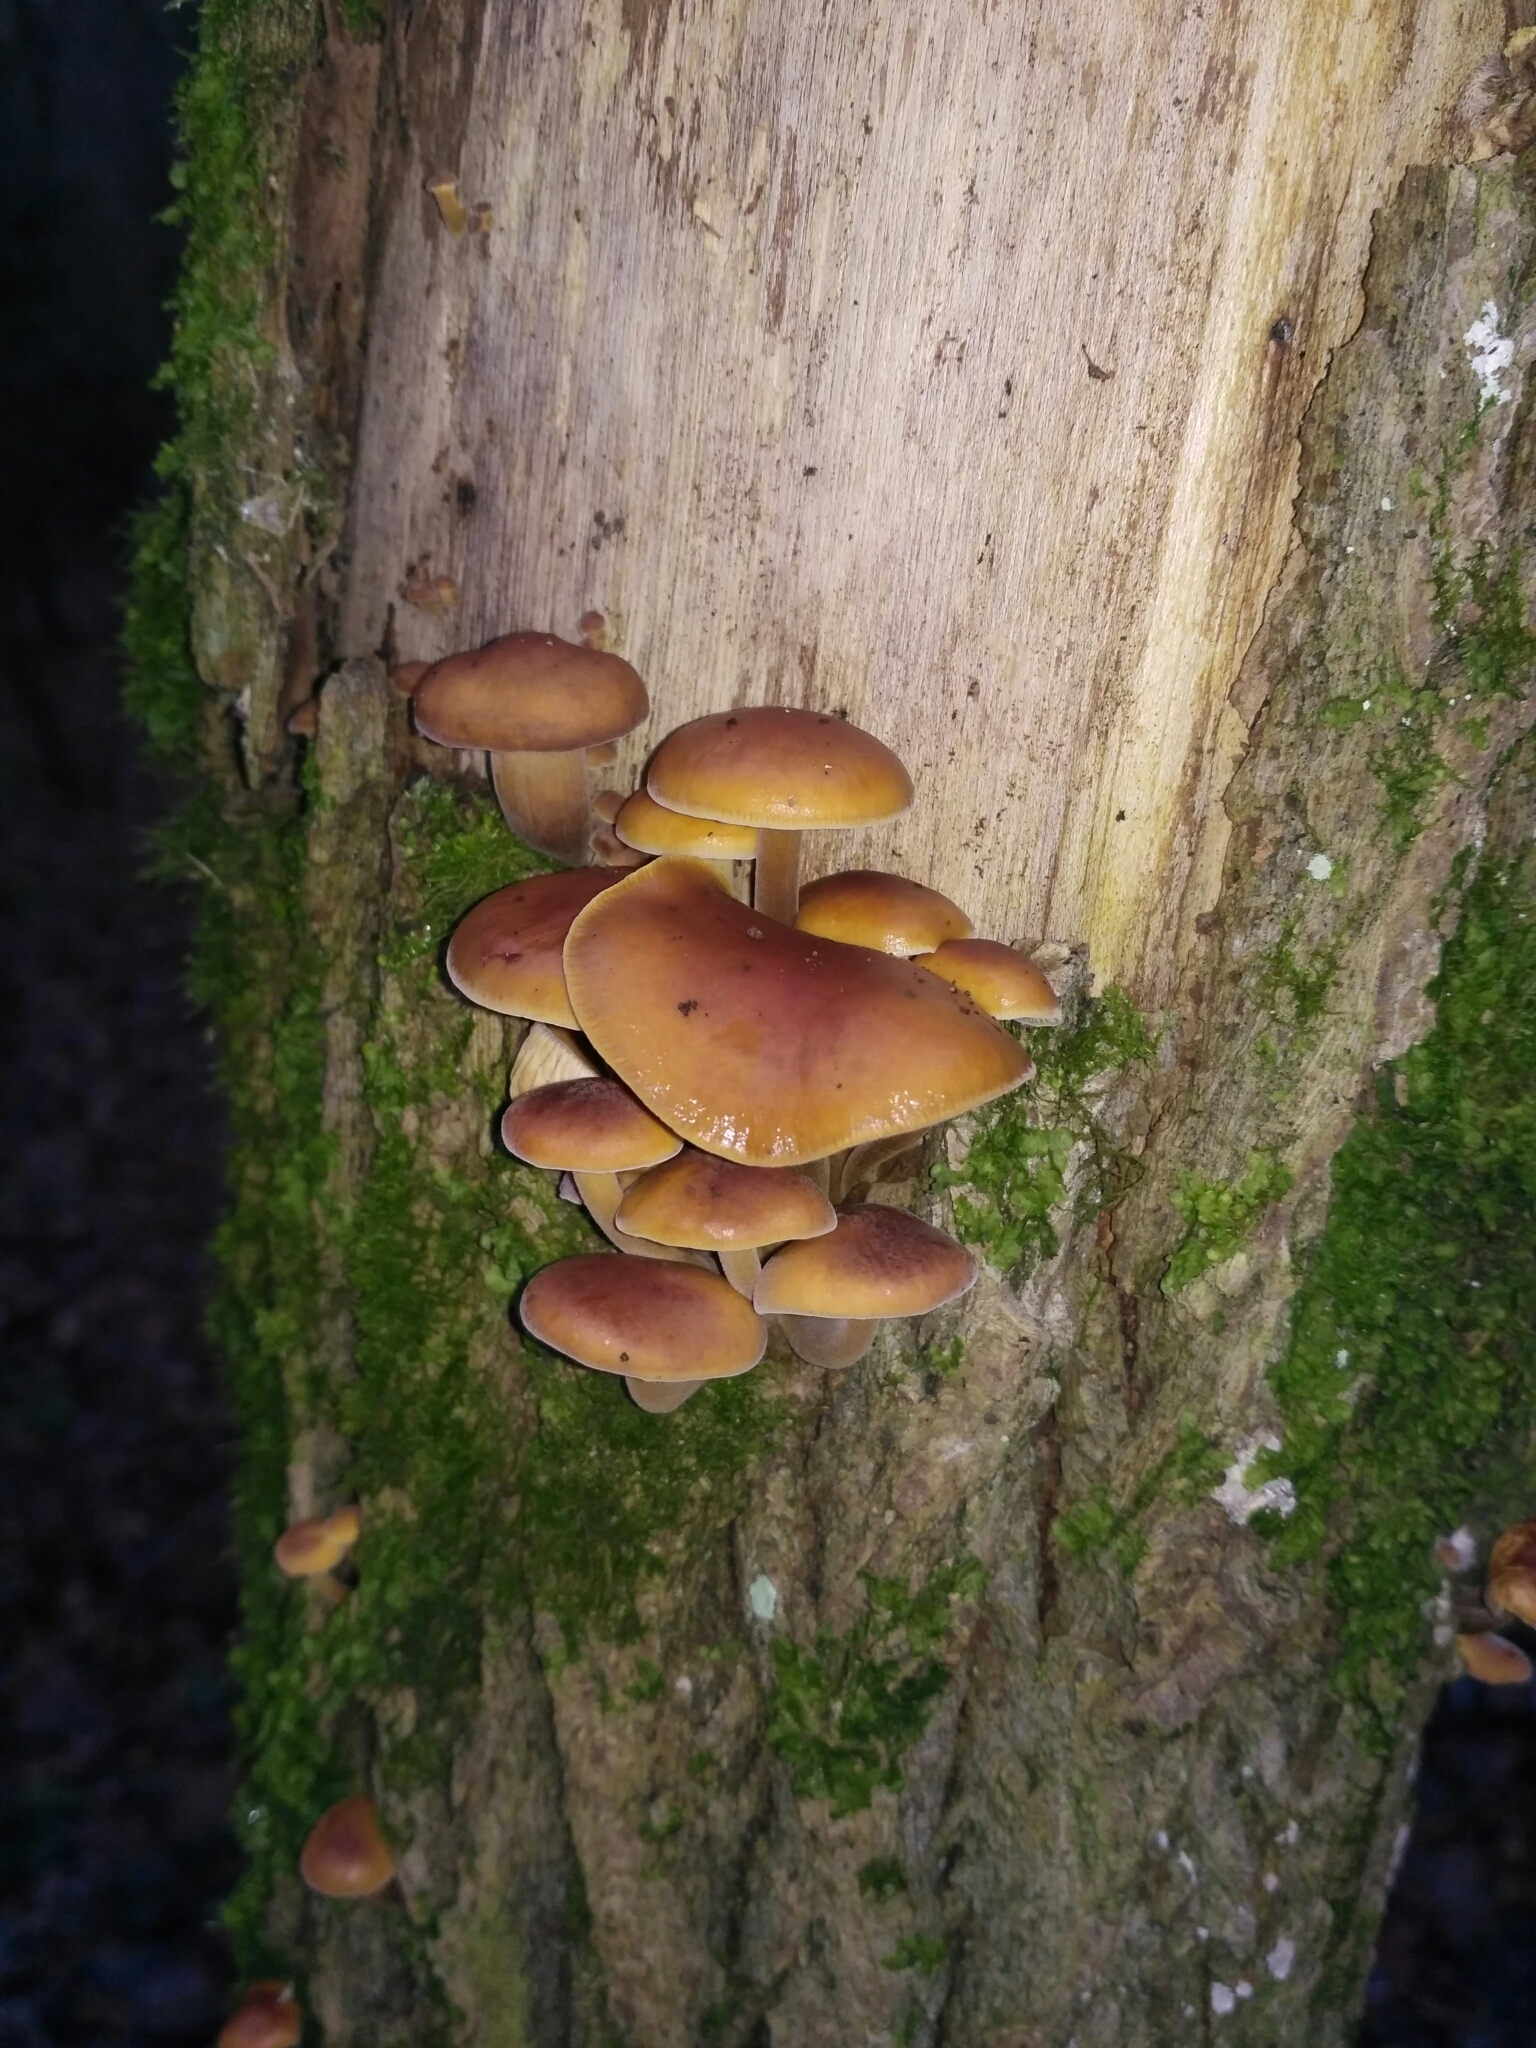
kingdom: Fungi
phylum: Basidiomycota
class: Agaricomycetes
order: Agaricales
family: Physalacriaceae
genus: Flammulina
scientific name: Flammulina
